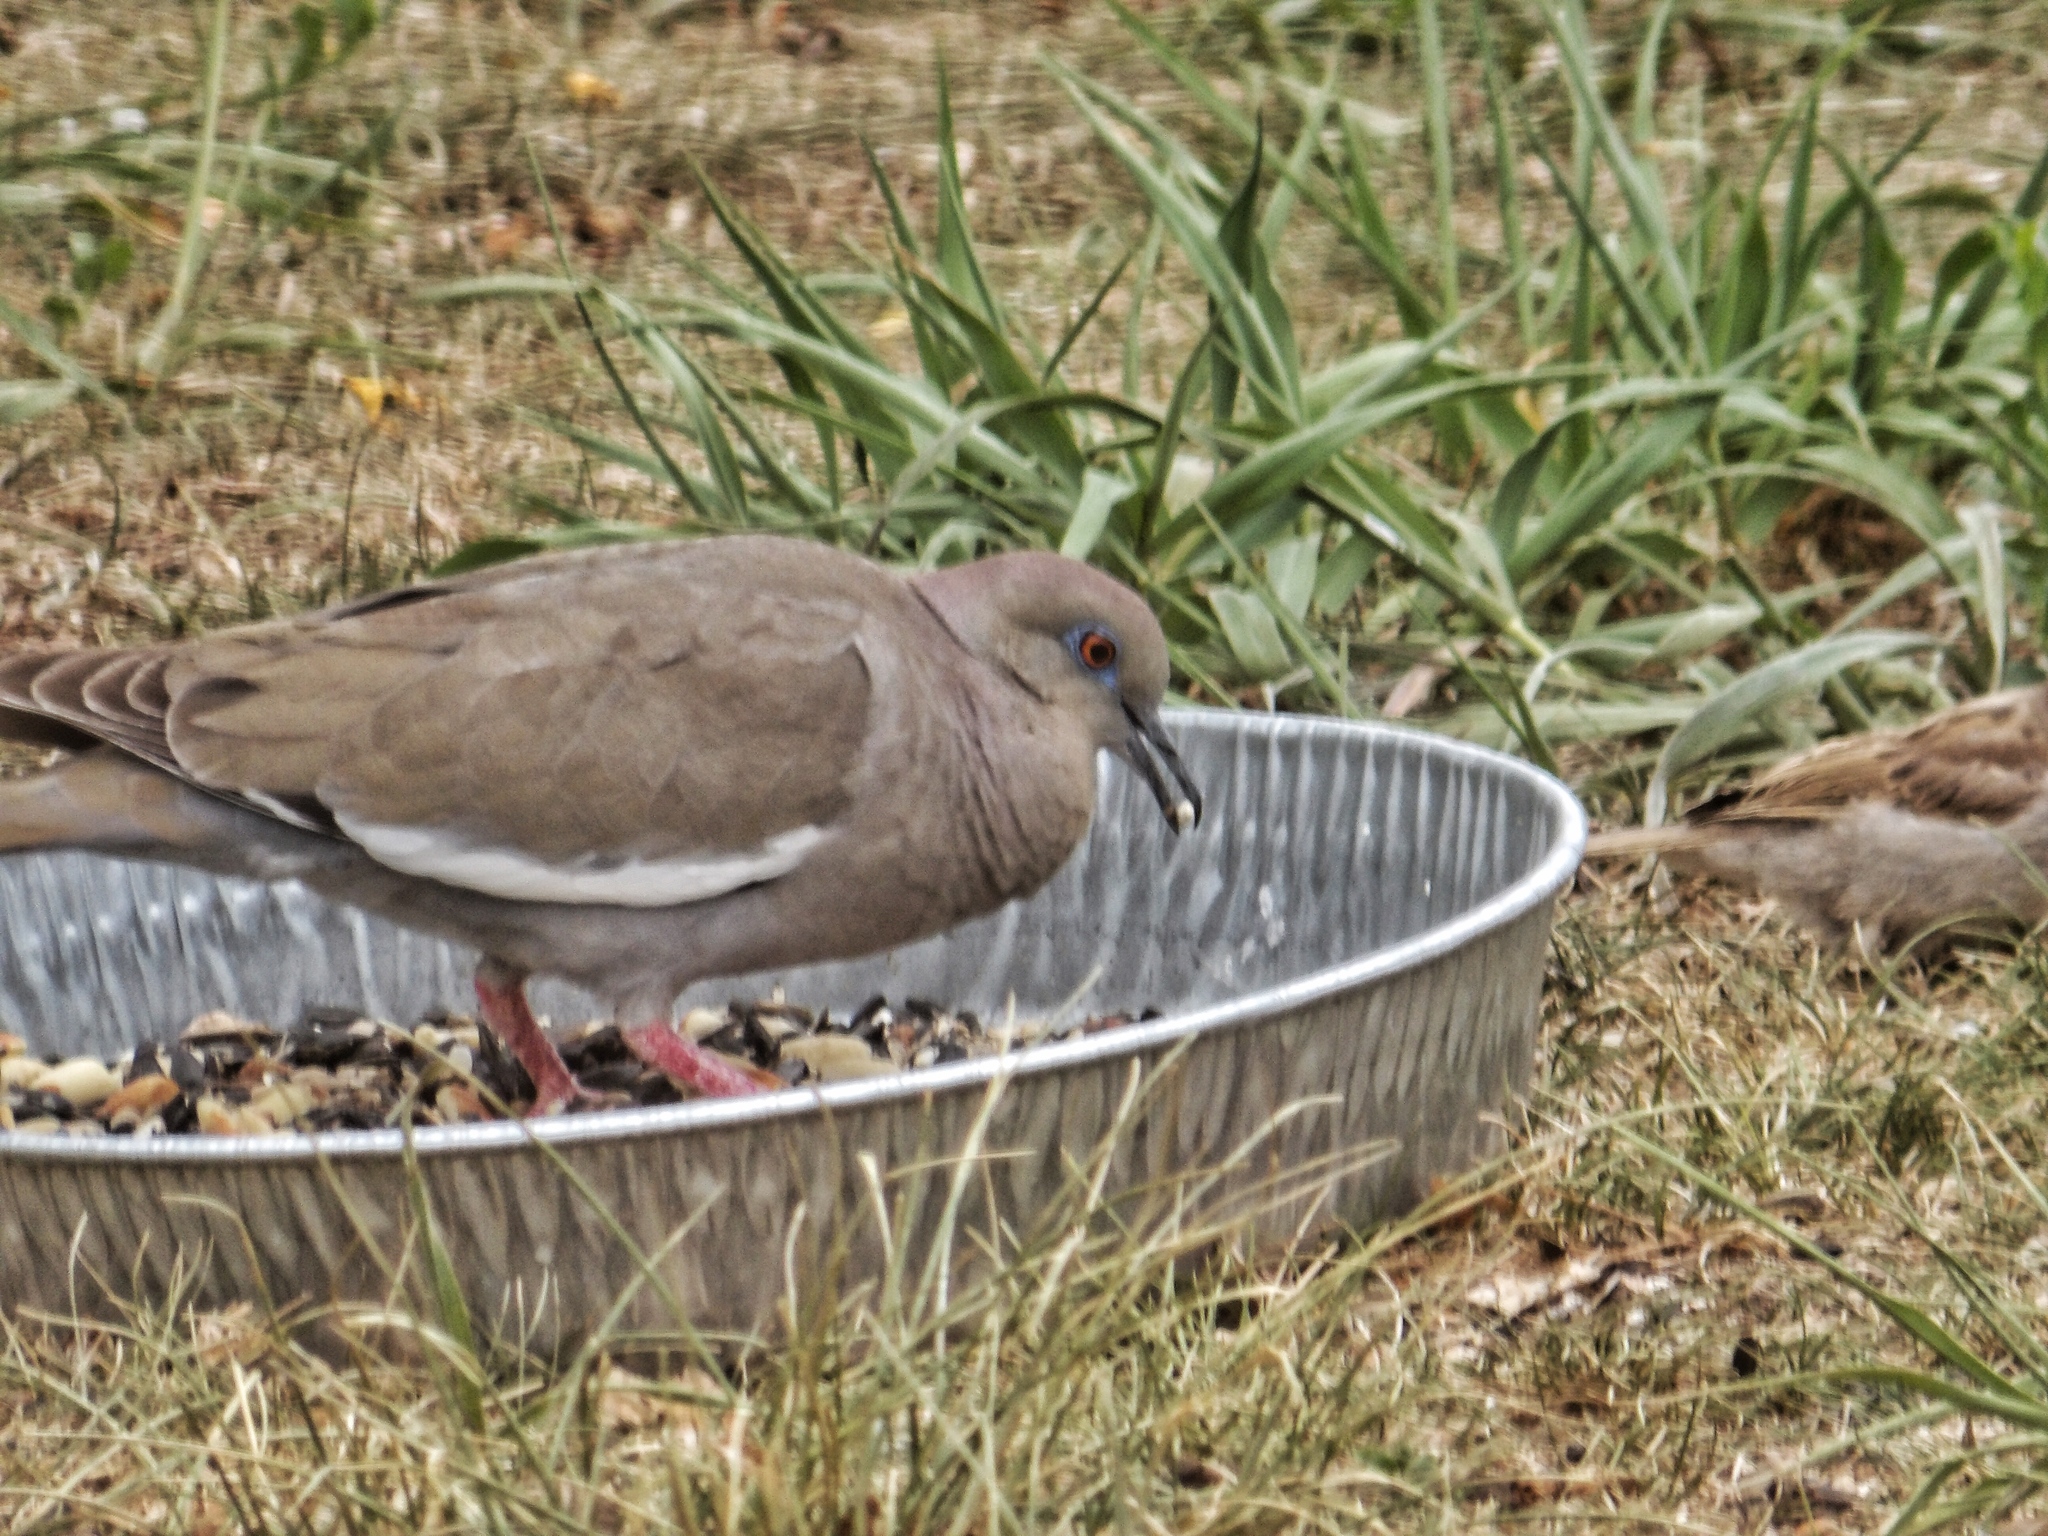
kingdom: Animalia
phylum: Chordata
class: Aves
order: Columbiformes
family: Columbidae
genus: Zenaida
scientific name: Zenaida asiatica
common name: White-winged dove
